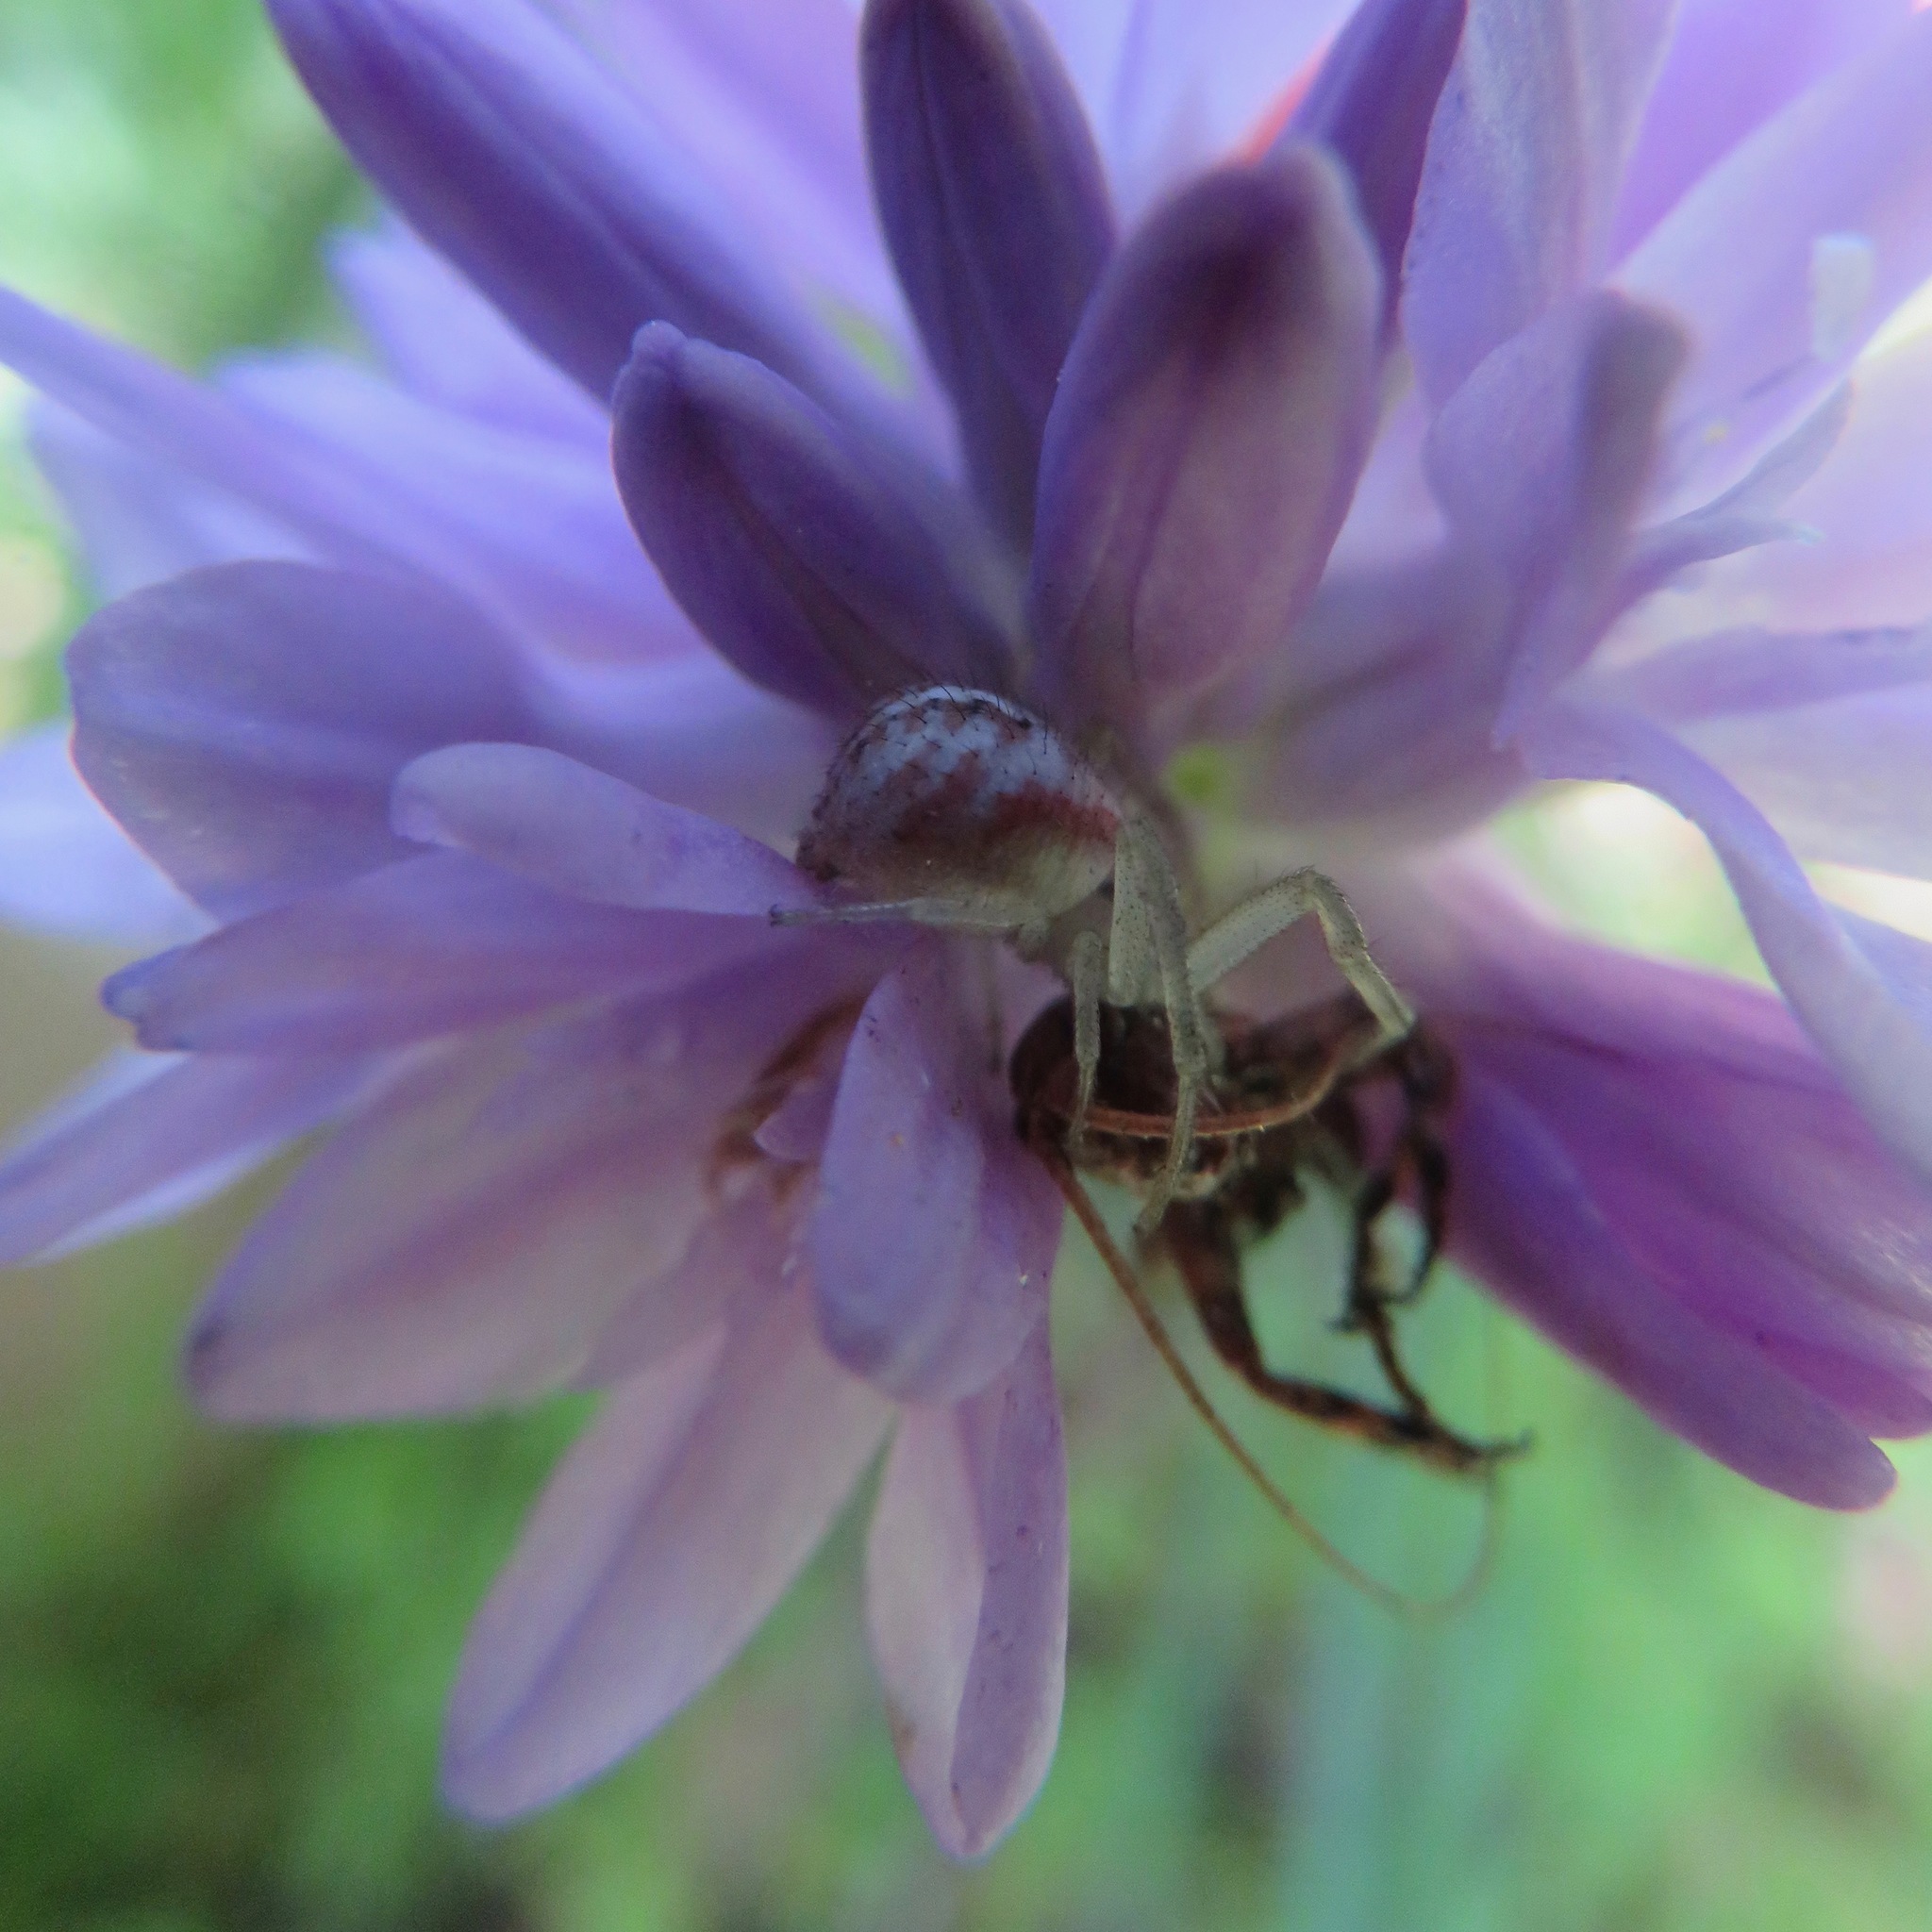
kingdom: Plantae
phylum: Tracheophyta
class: Liliopsida
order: Asparagales
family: Asparagaceae
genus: Dichelostemma
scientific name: Dichelostemma congestum
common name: Fork-tooth ookow
